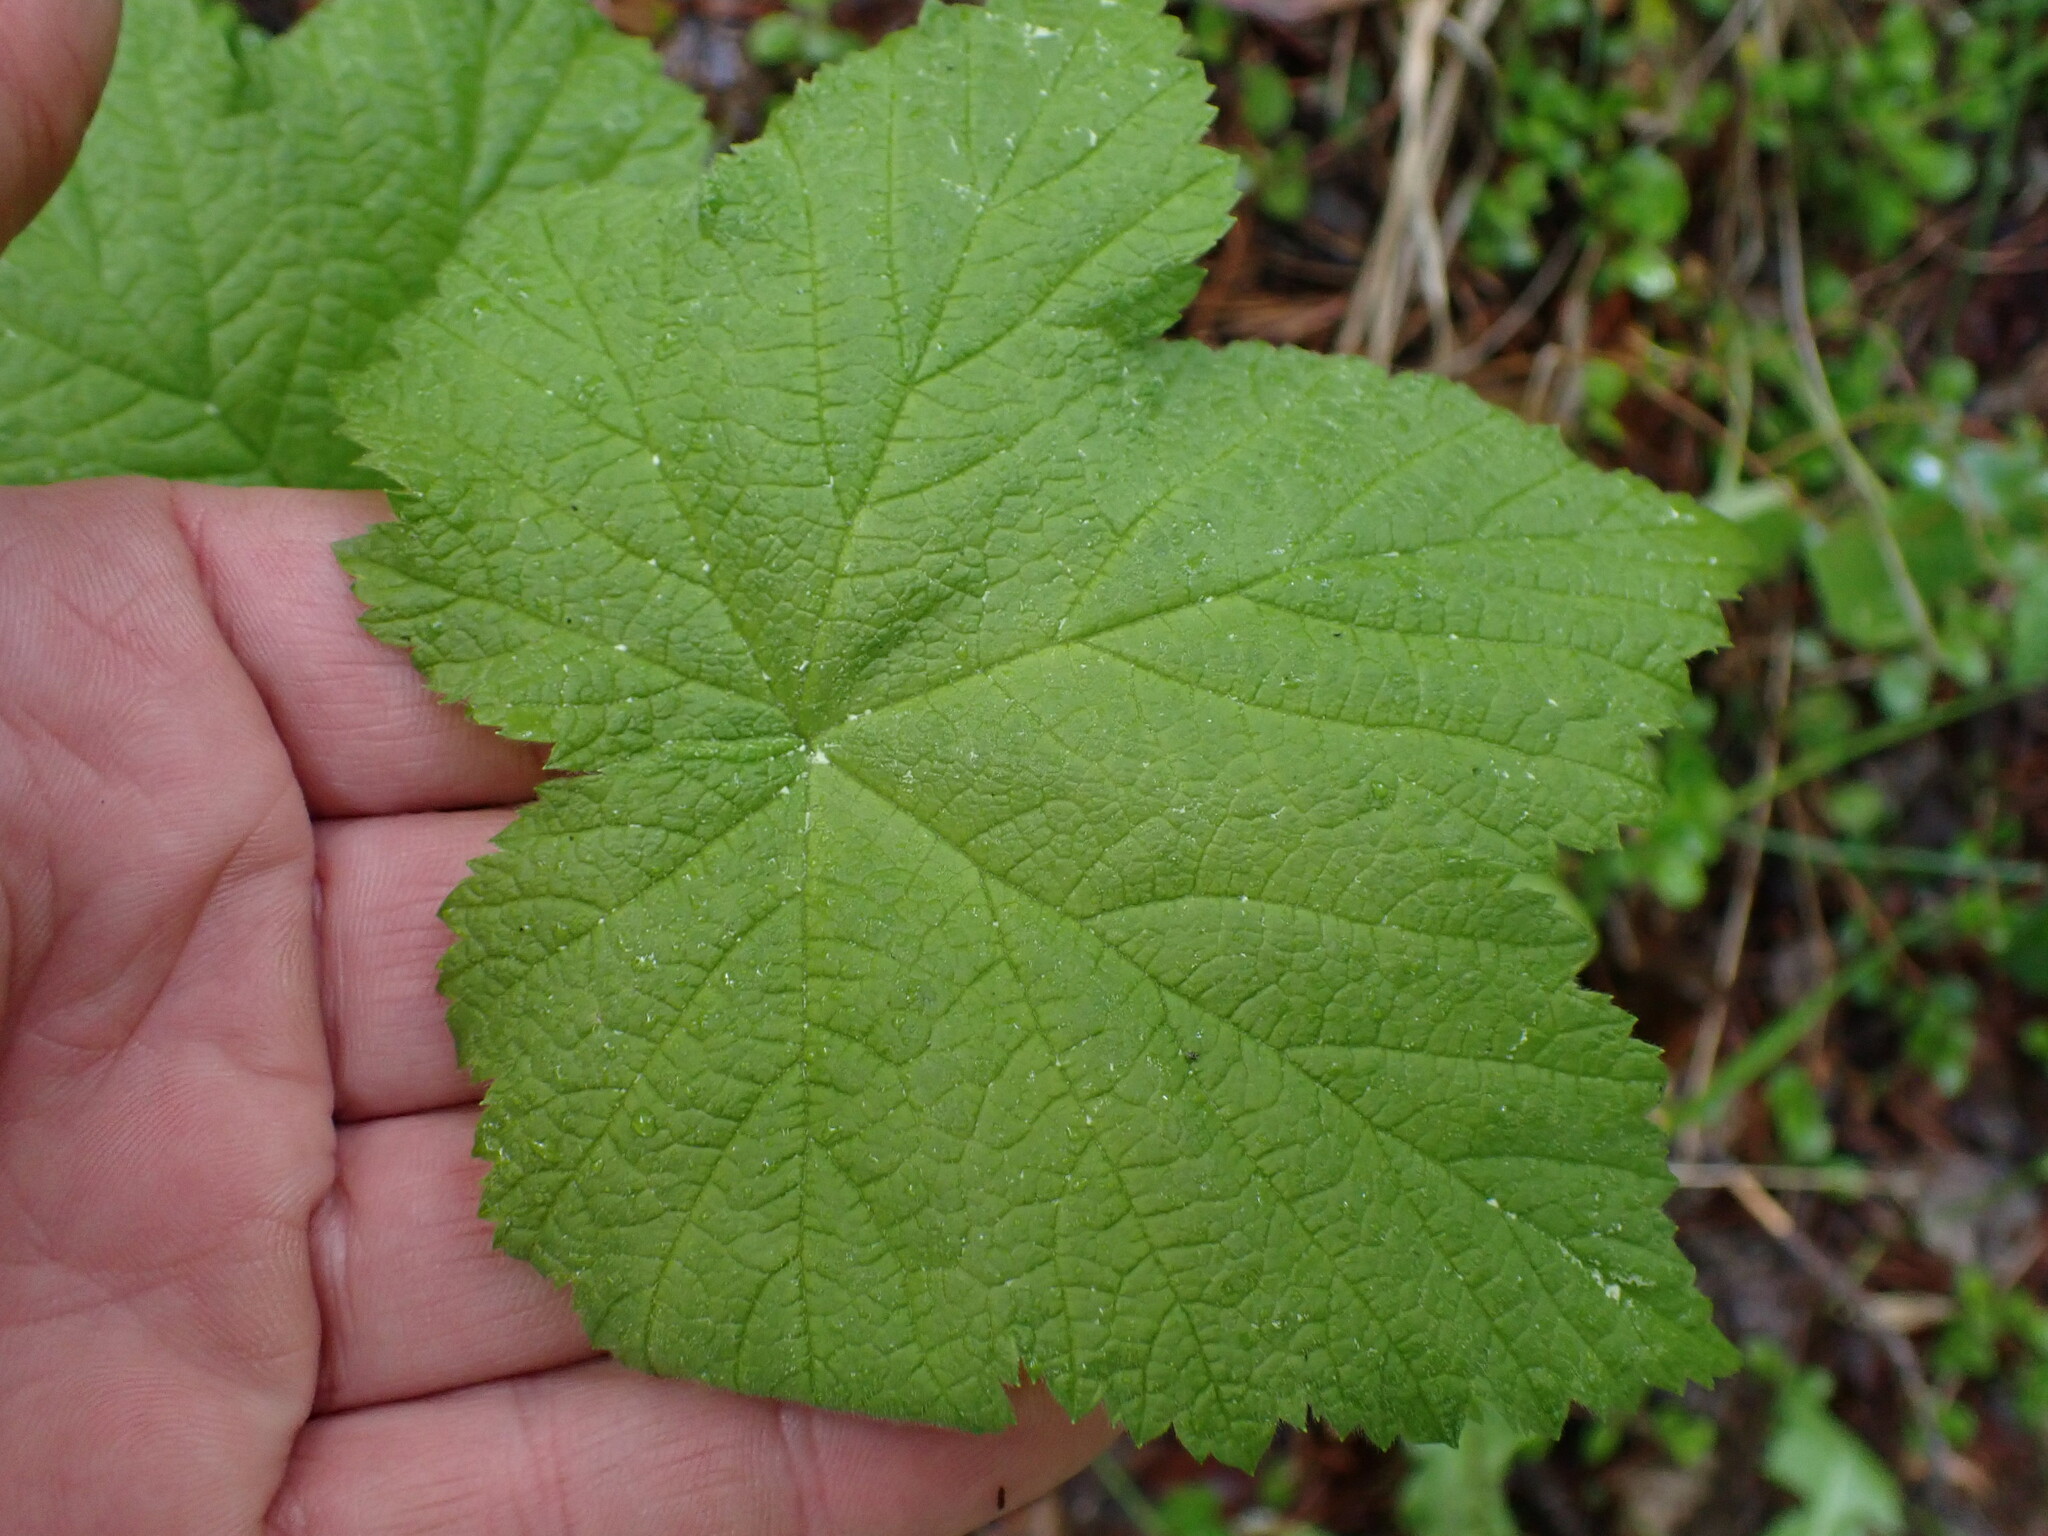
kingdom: Plantae
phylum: Tracheophyta
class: Magnoliopsida
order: Rosales
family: Rosaceae
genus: Rubus
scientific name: Rubus parviflorus
